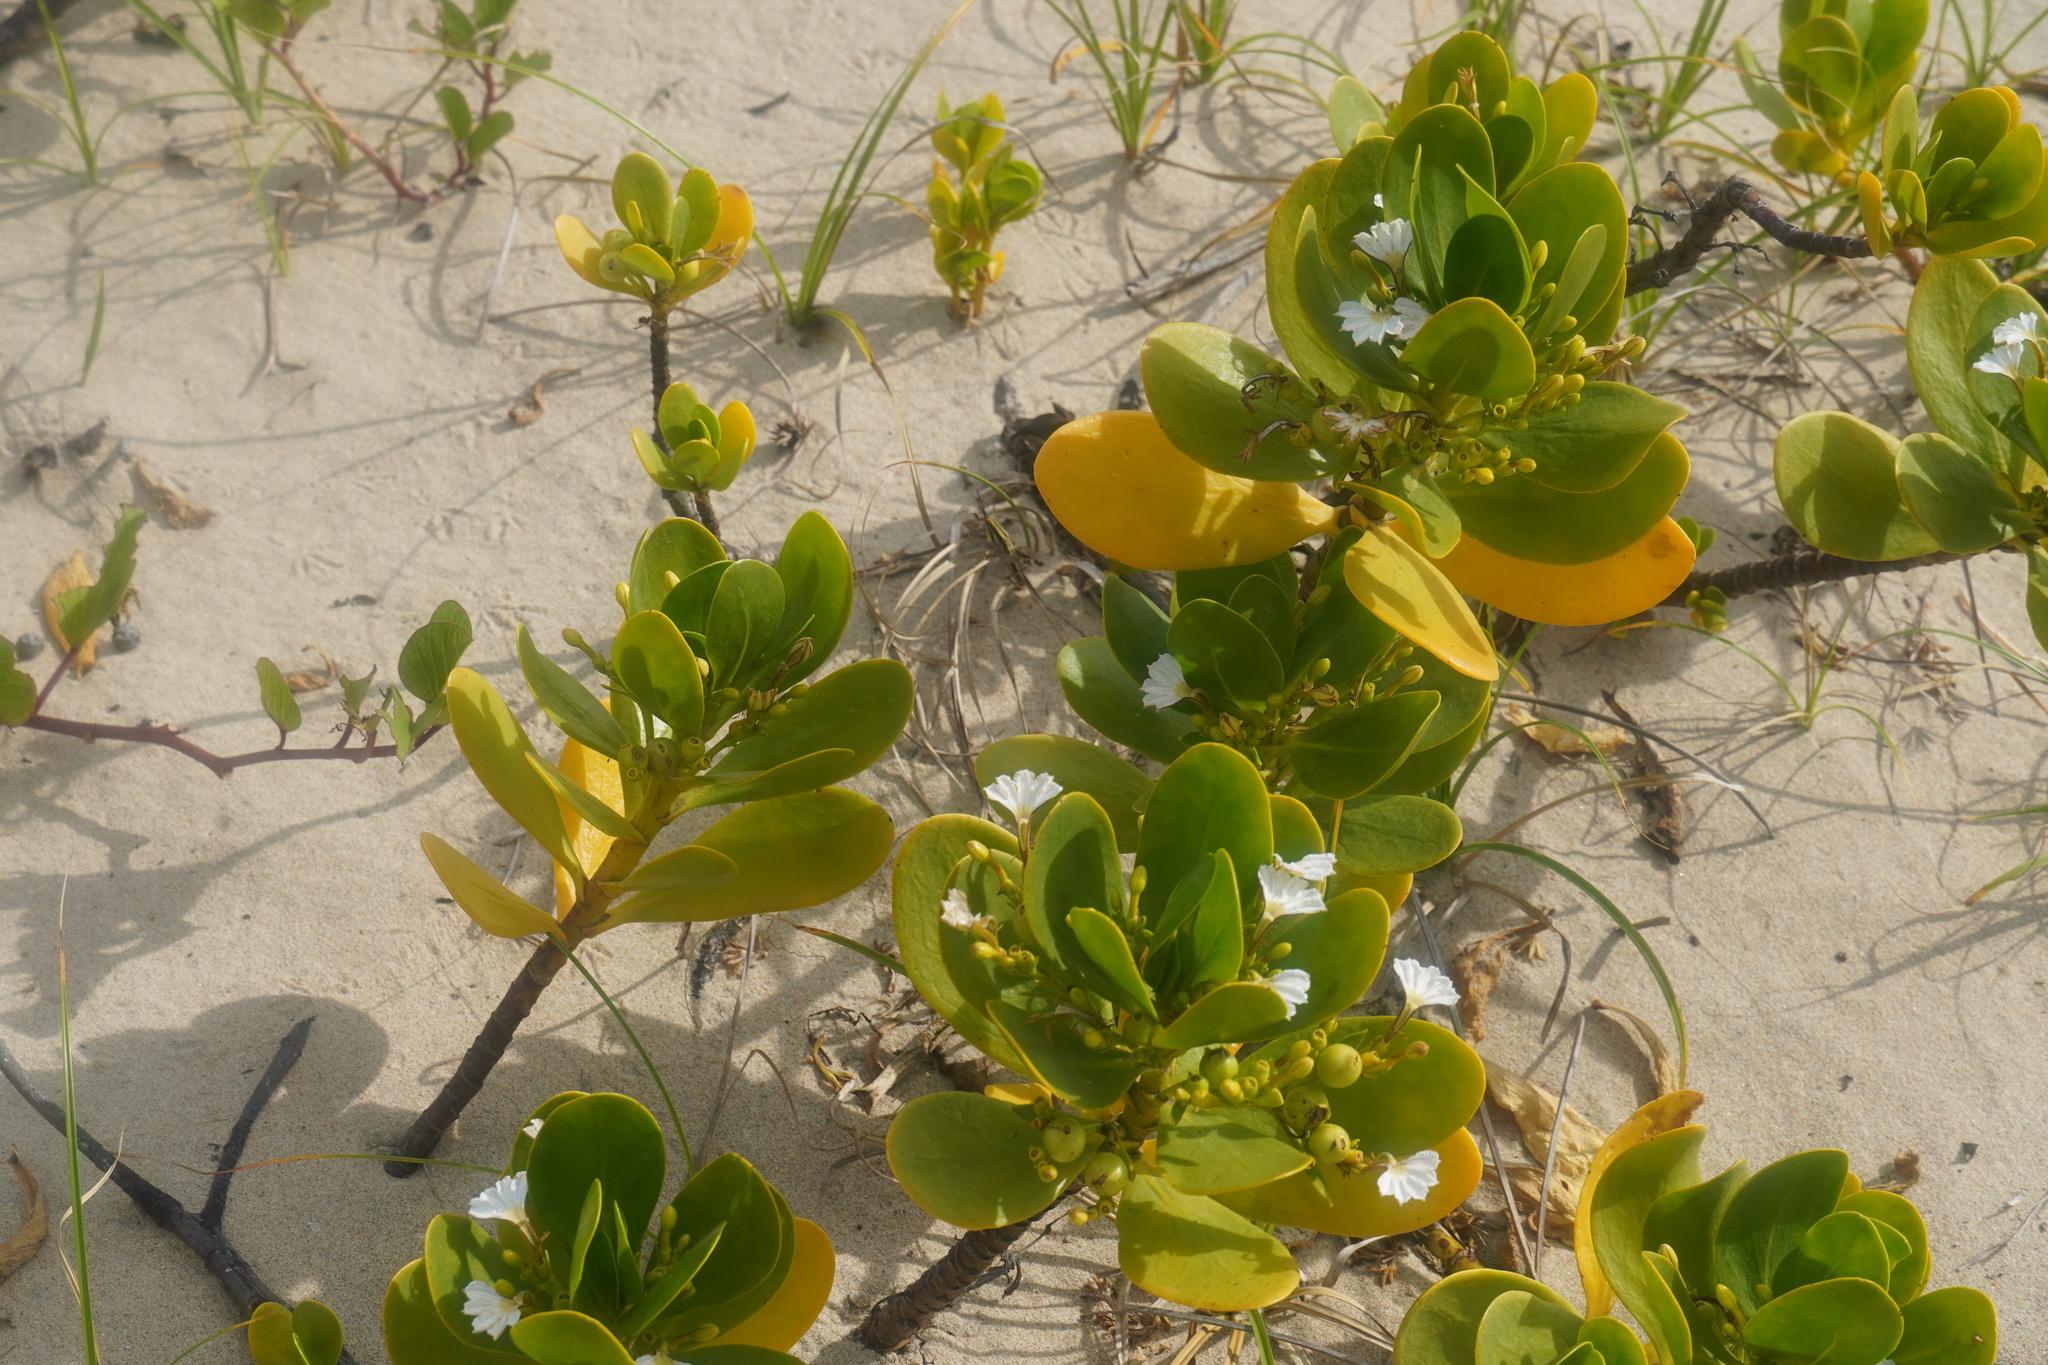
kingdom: Plantae
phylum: Tracheophyta
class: Magnoliopsida
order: Asterales
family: Goodeniaceae
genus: Scaevola
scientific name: Scaevola plumieri
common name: Gull feed
